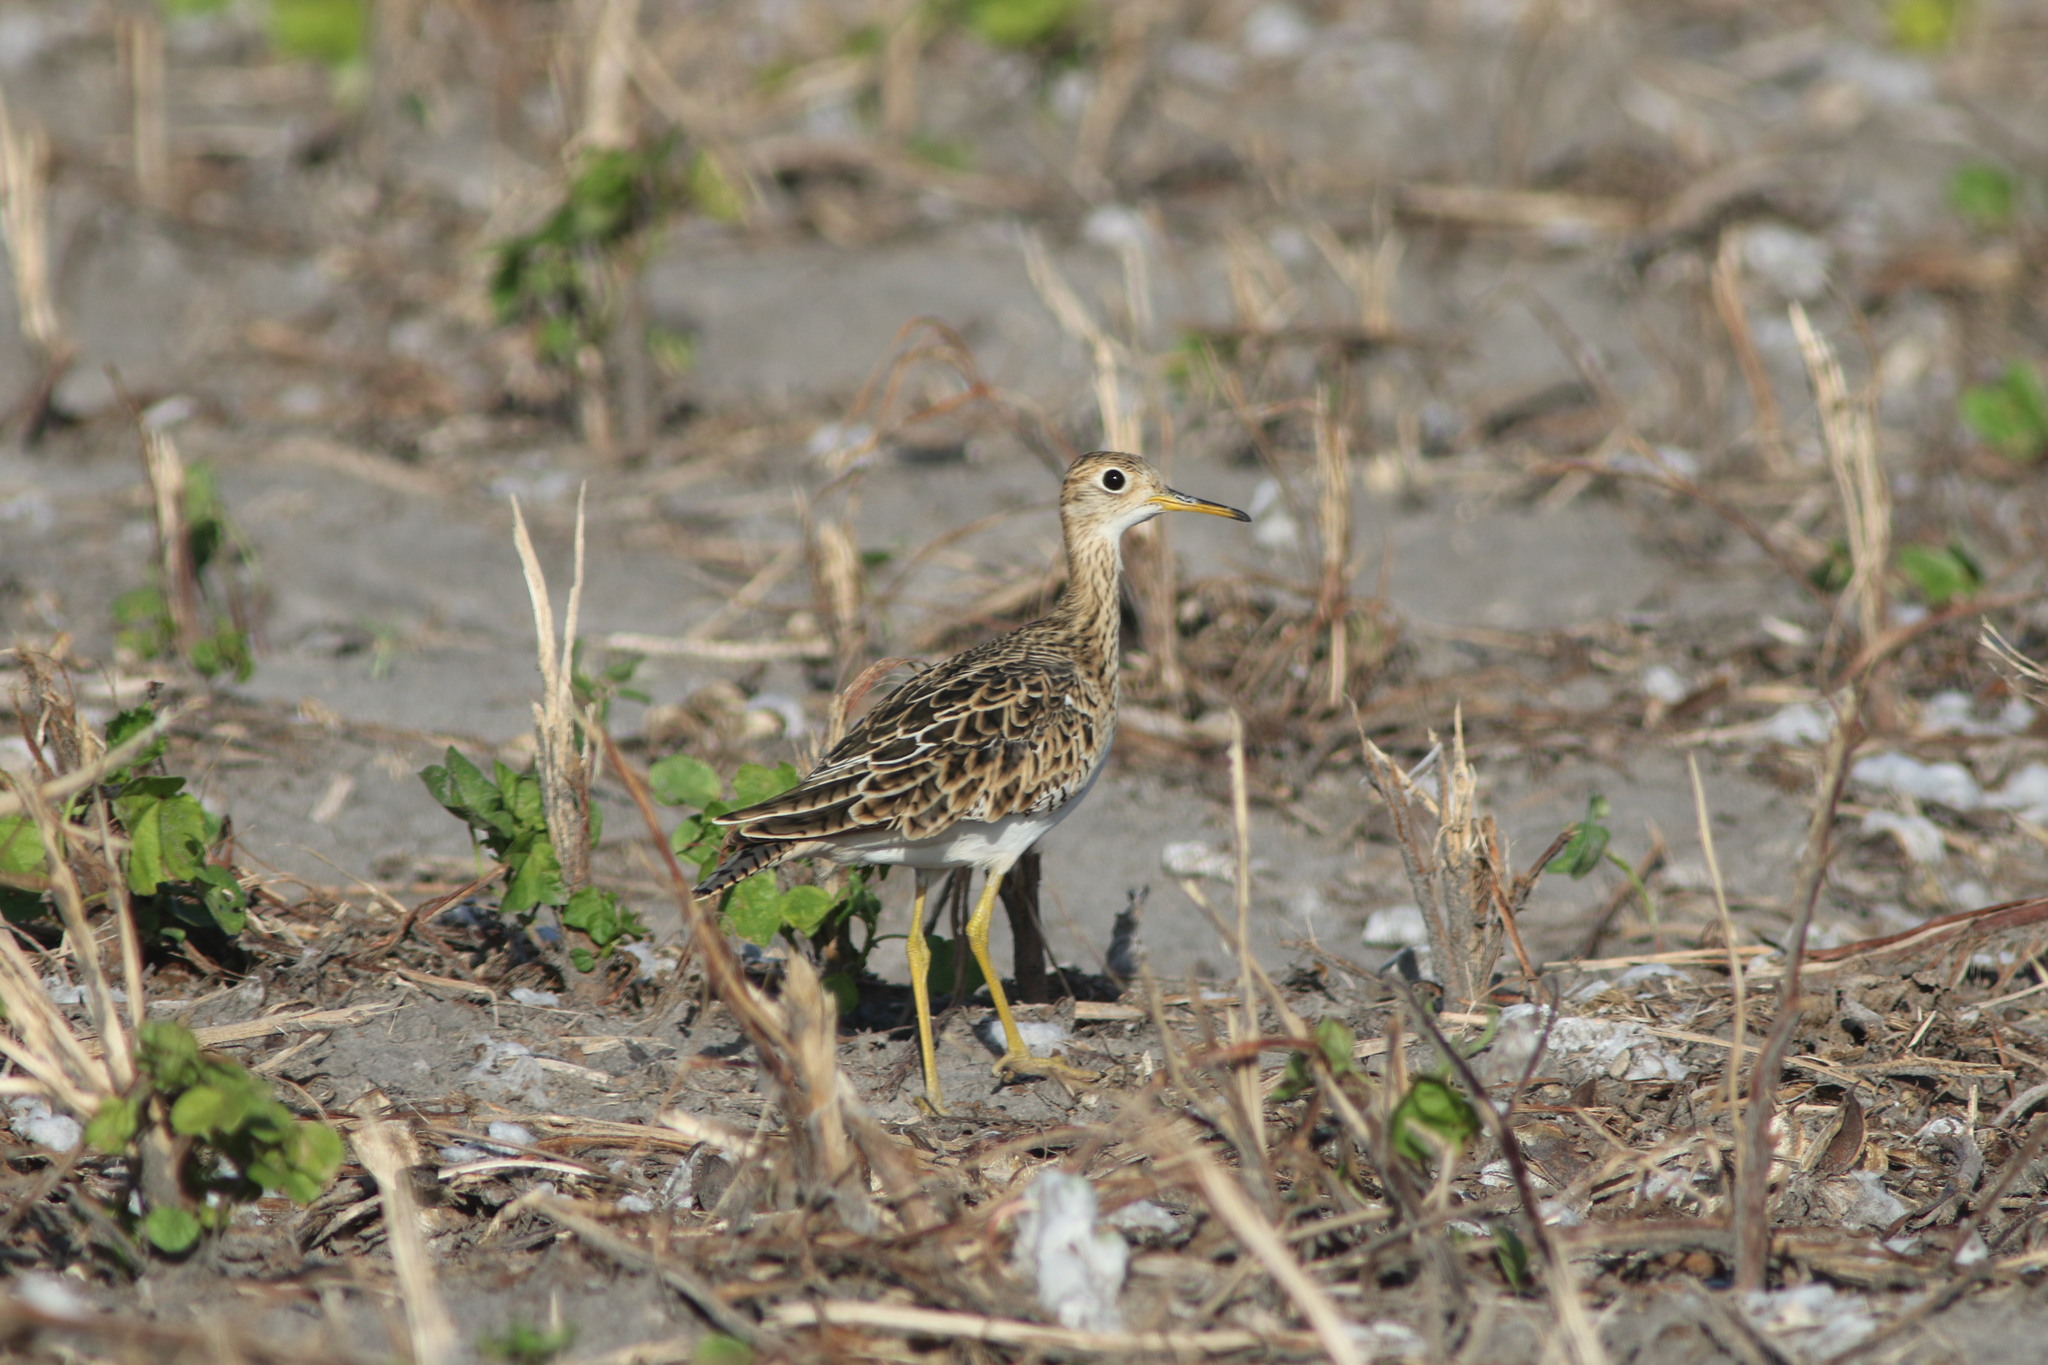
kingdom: Animalia
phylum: Chordata
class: Aves
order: Charadriiformes
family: Scolopacidae
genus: Bartramia
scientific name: Bartramia longicauda
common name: Upland sandpiper
